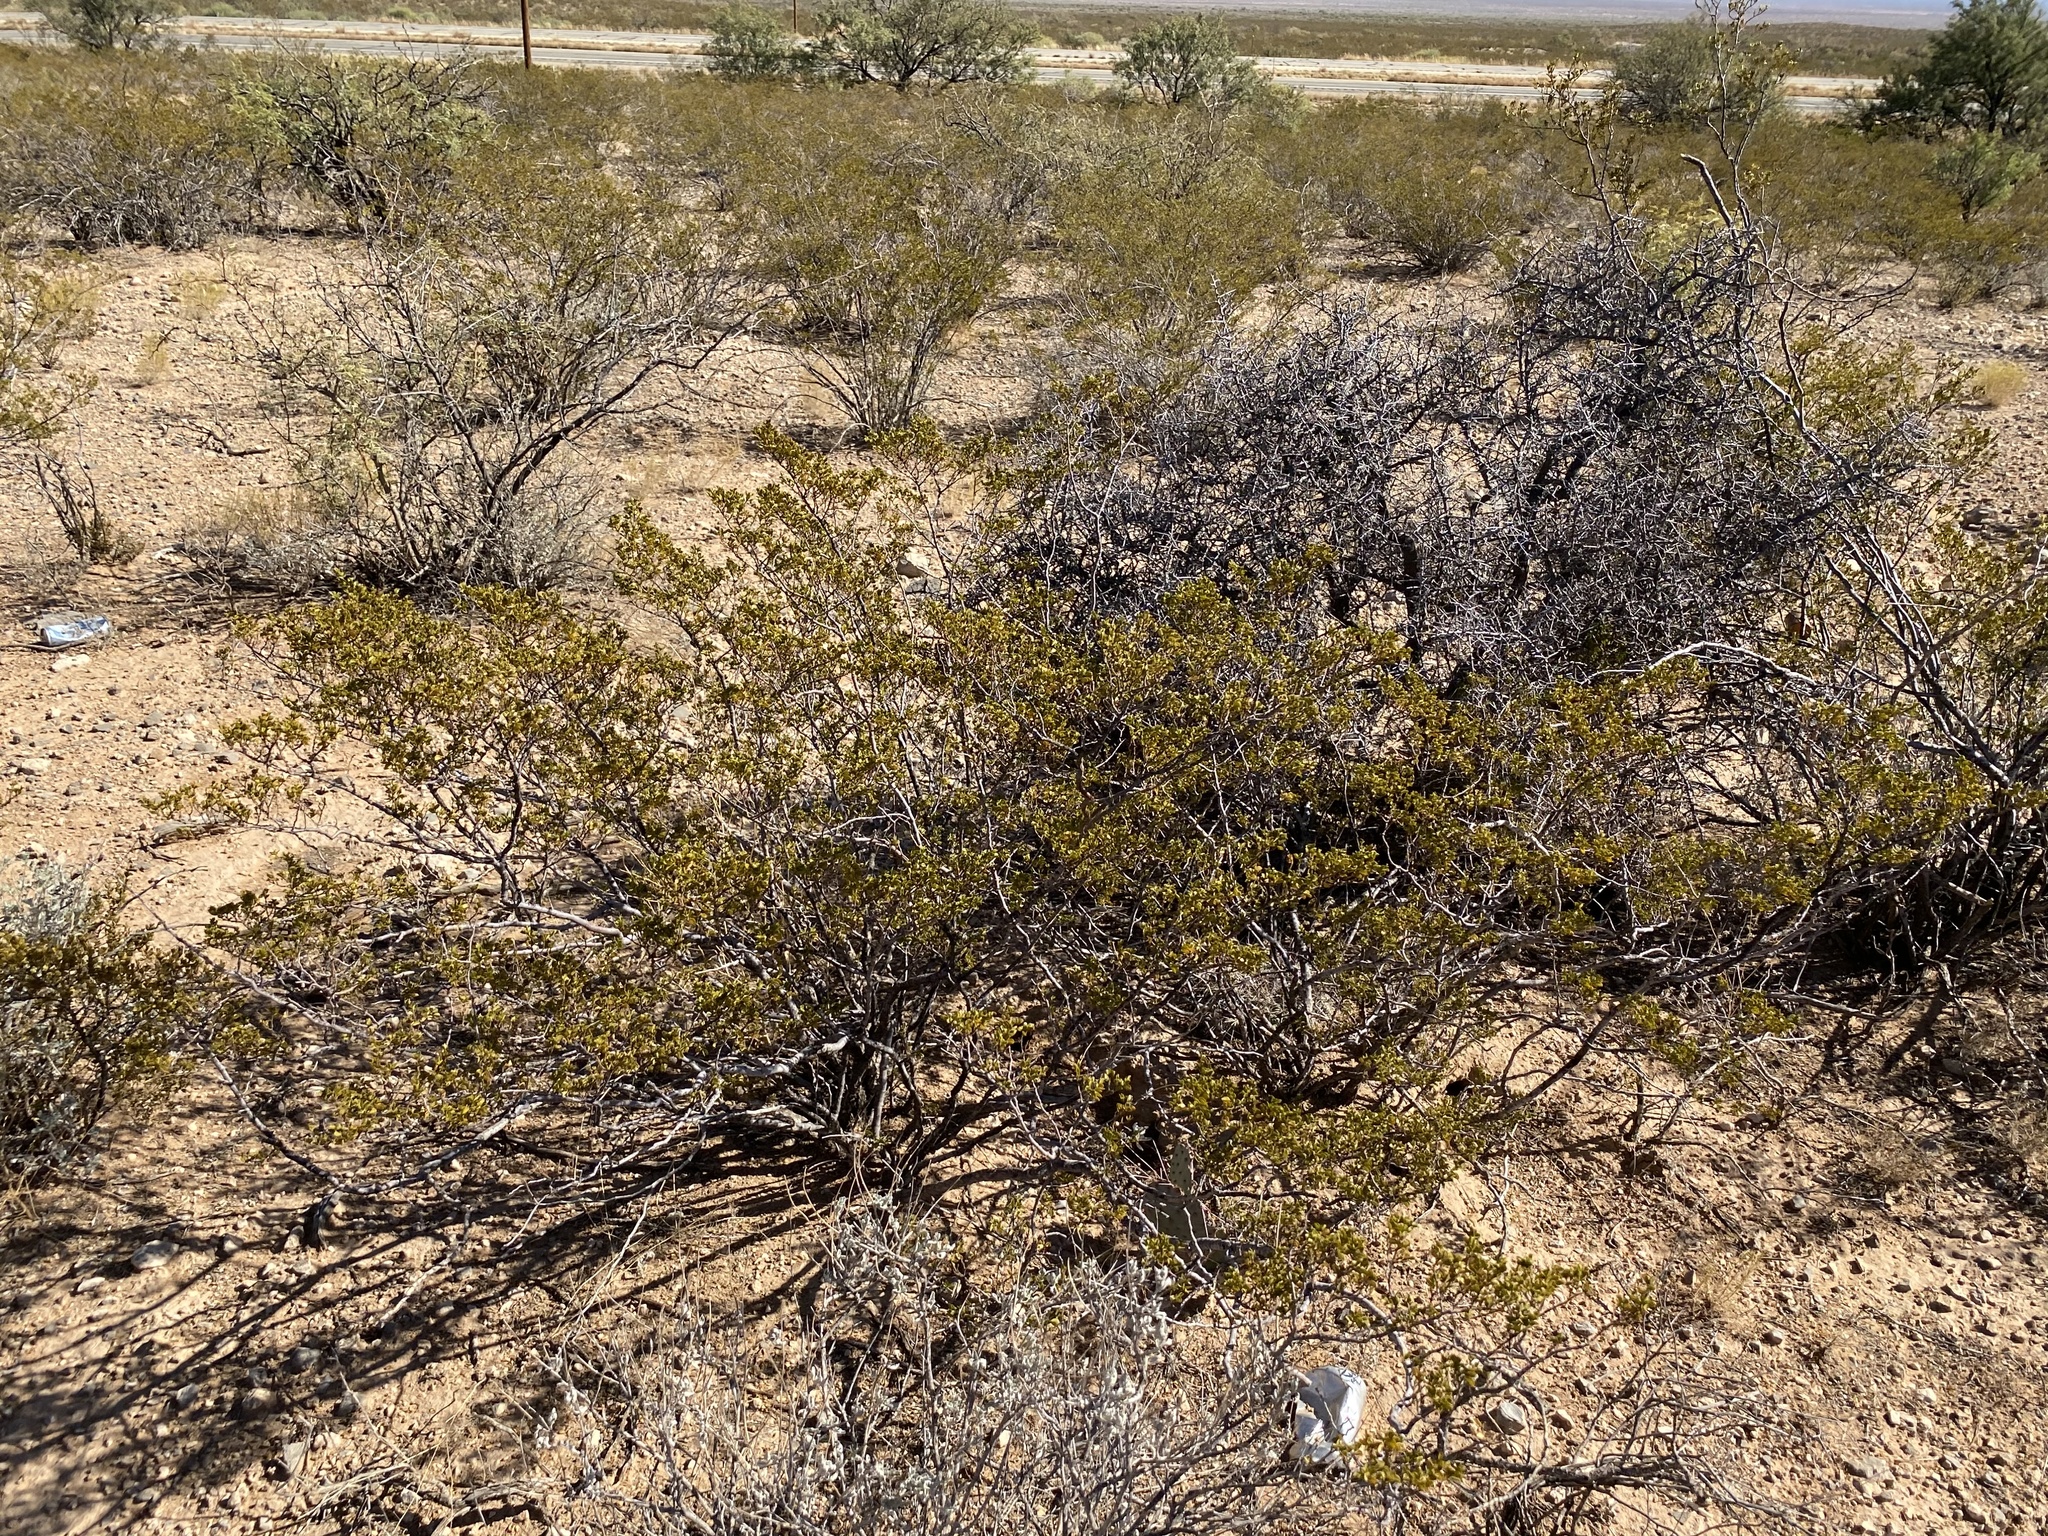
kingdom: Plantae
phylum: Tracheophyta
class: Magnoliopsida
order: Zygophyllales
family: Zygophyllaceae
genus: Larrea
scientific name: Larrea tridentata
